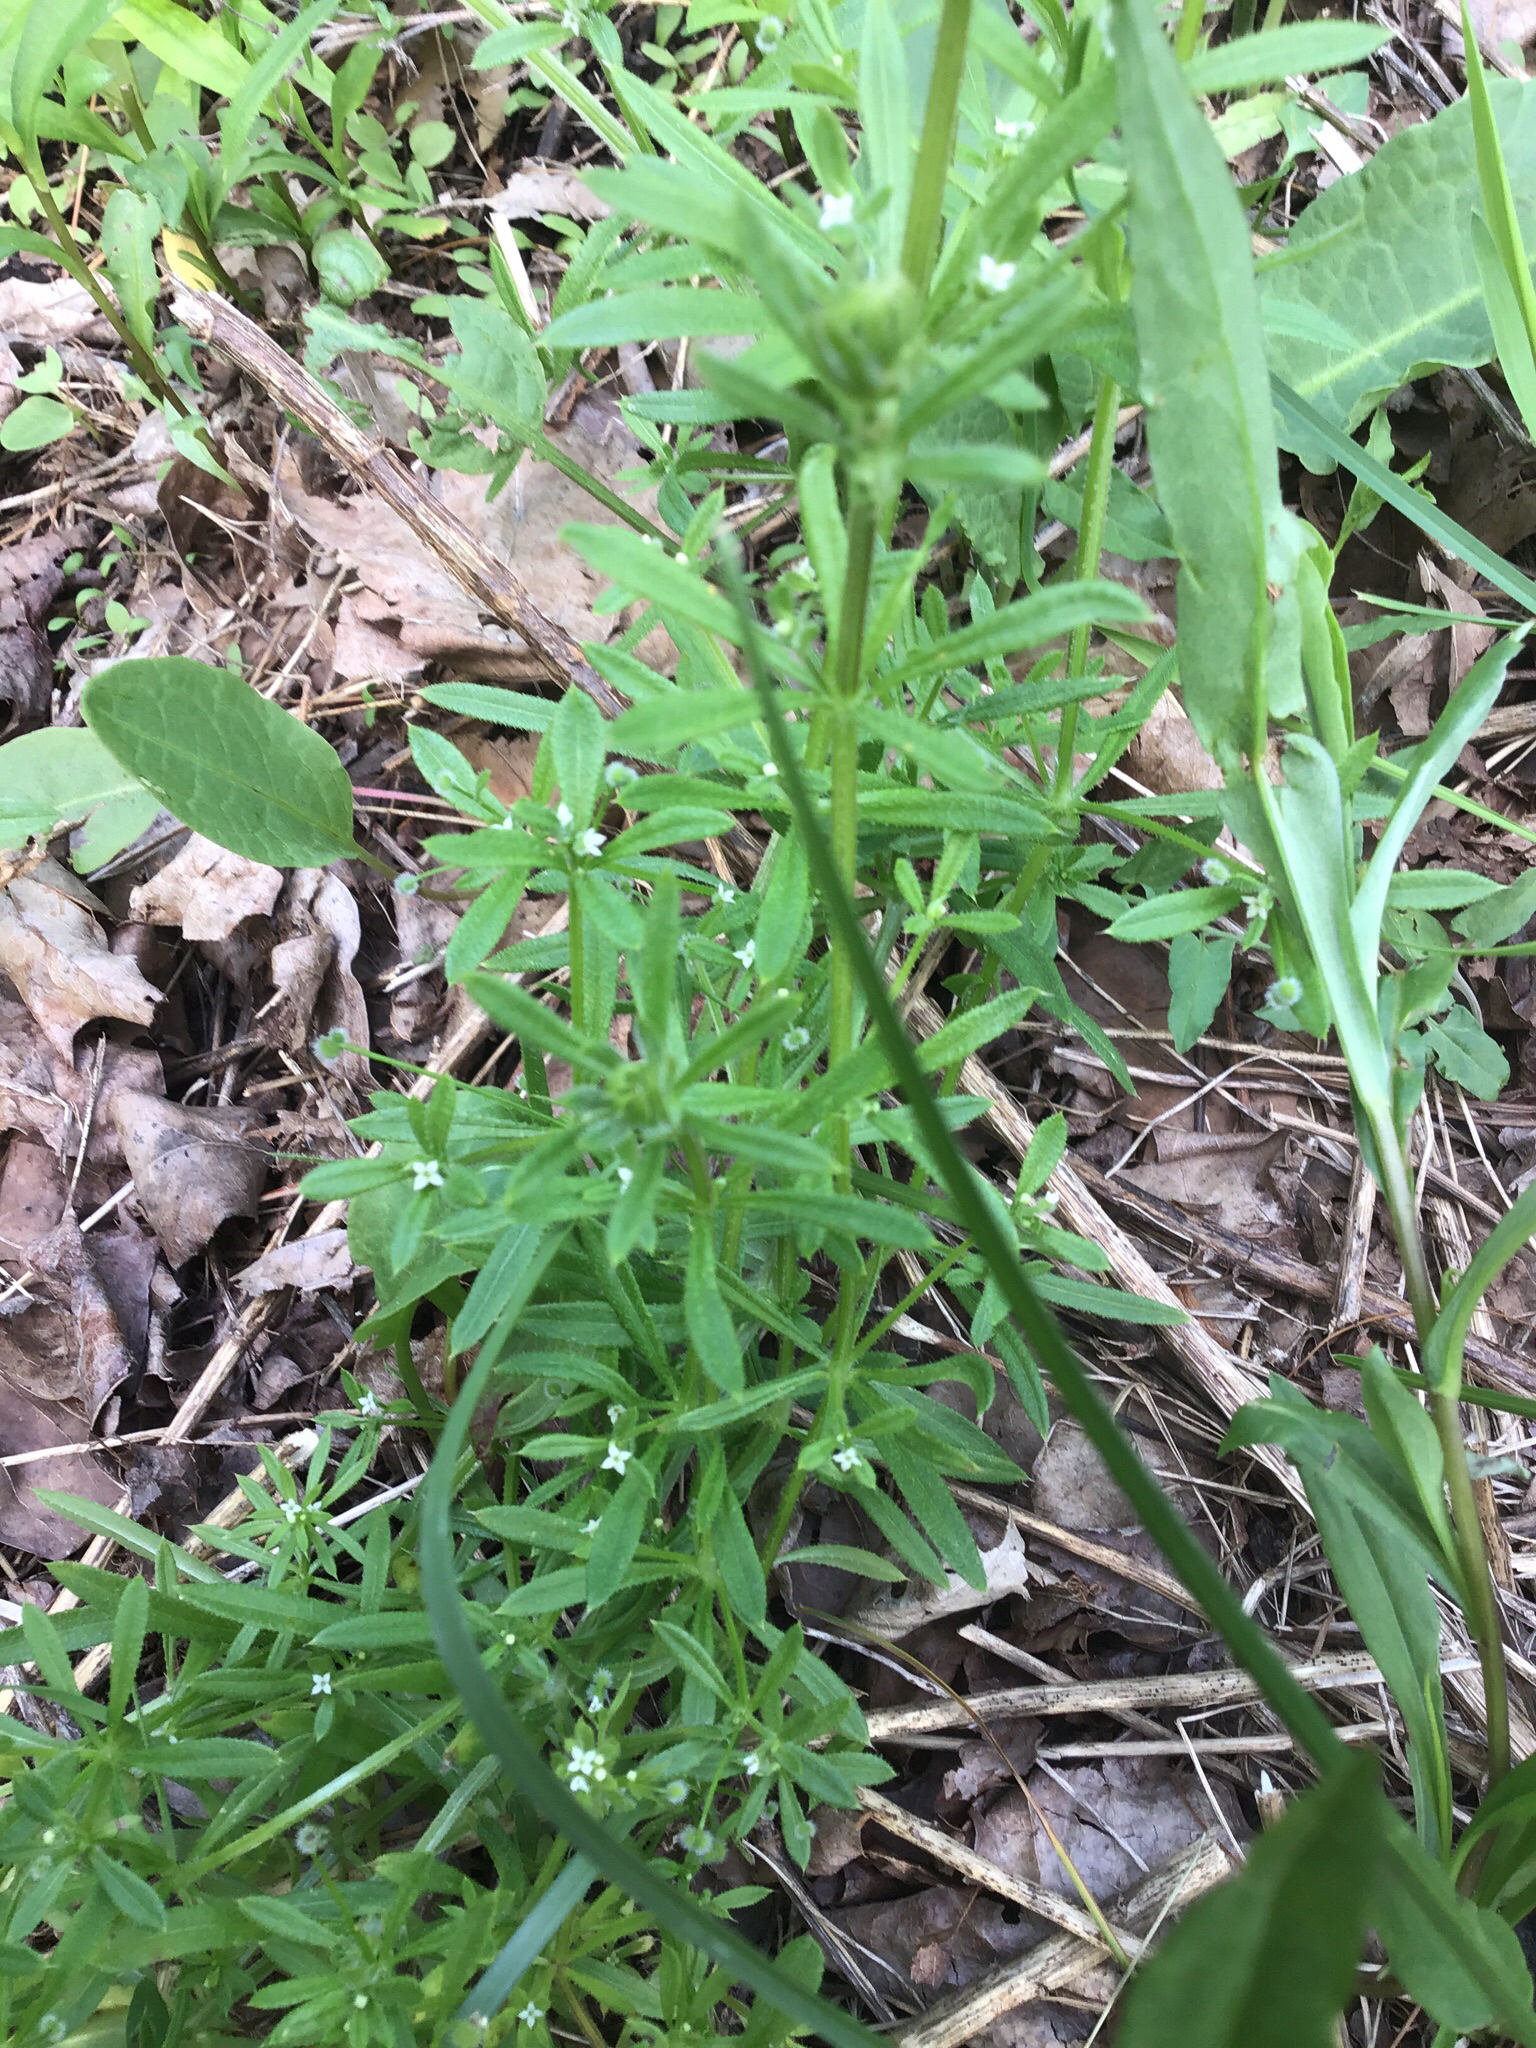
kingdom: Plantae
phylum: Tracheophyta
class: Magnoliopsida
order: Gentianales
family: Rubiaceae
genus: Galium
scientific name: Galium aparine
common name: Cleavers
